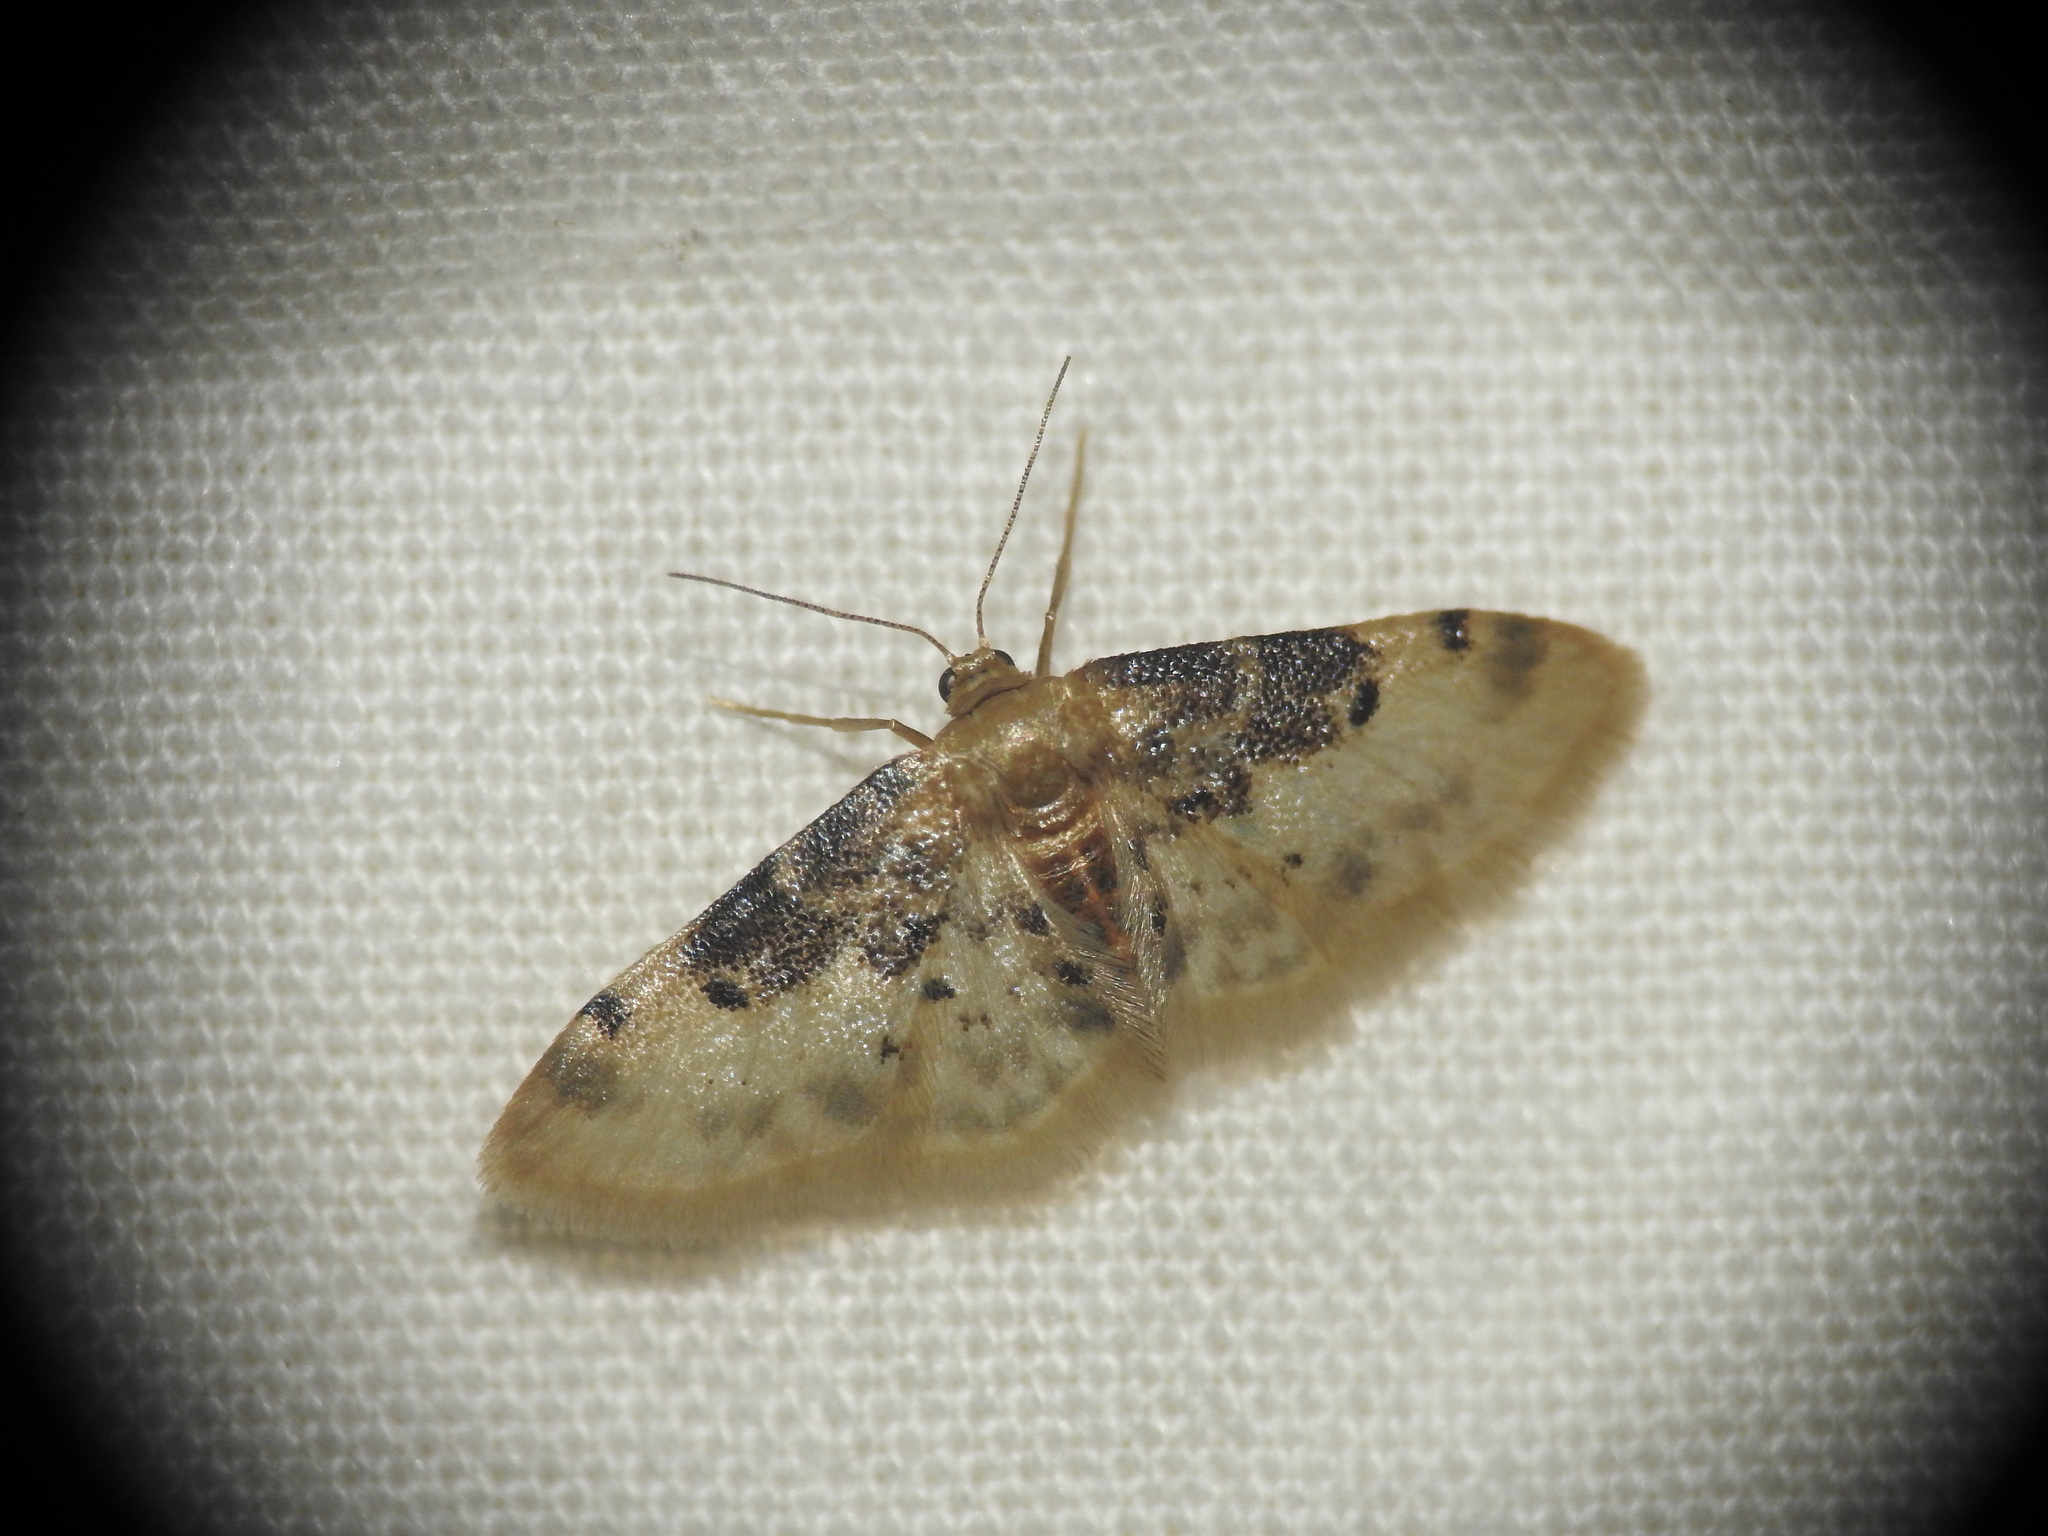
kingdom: Animalia
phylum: Arthropoda
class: Insecta
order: Lepidoptera
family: Geometridae
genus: Idaea
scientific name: Idaea filicata
